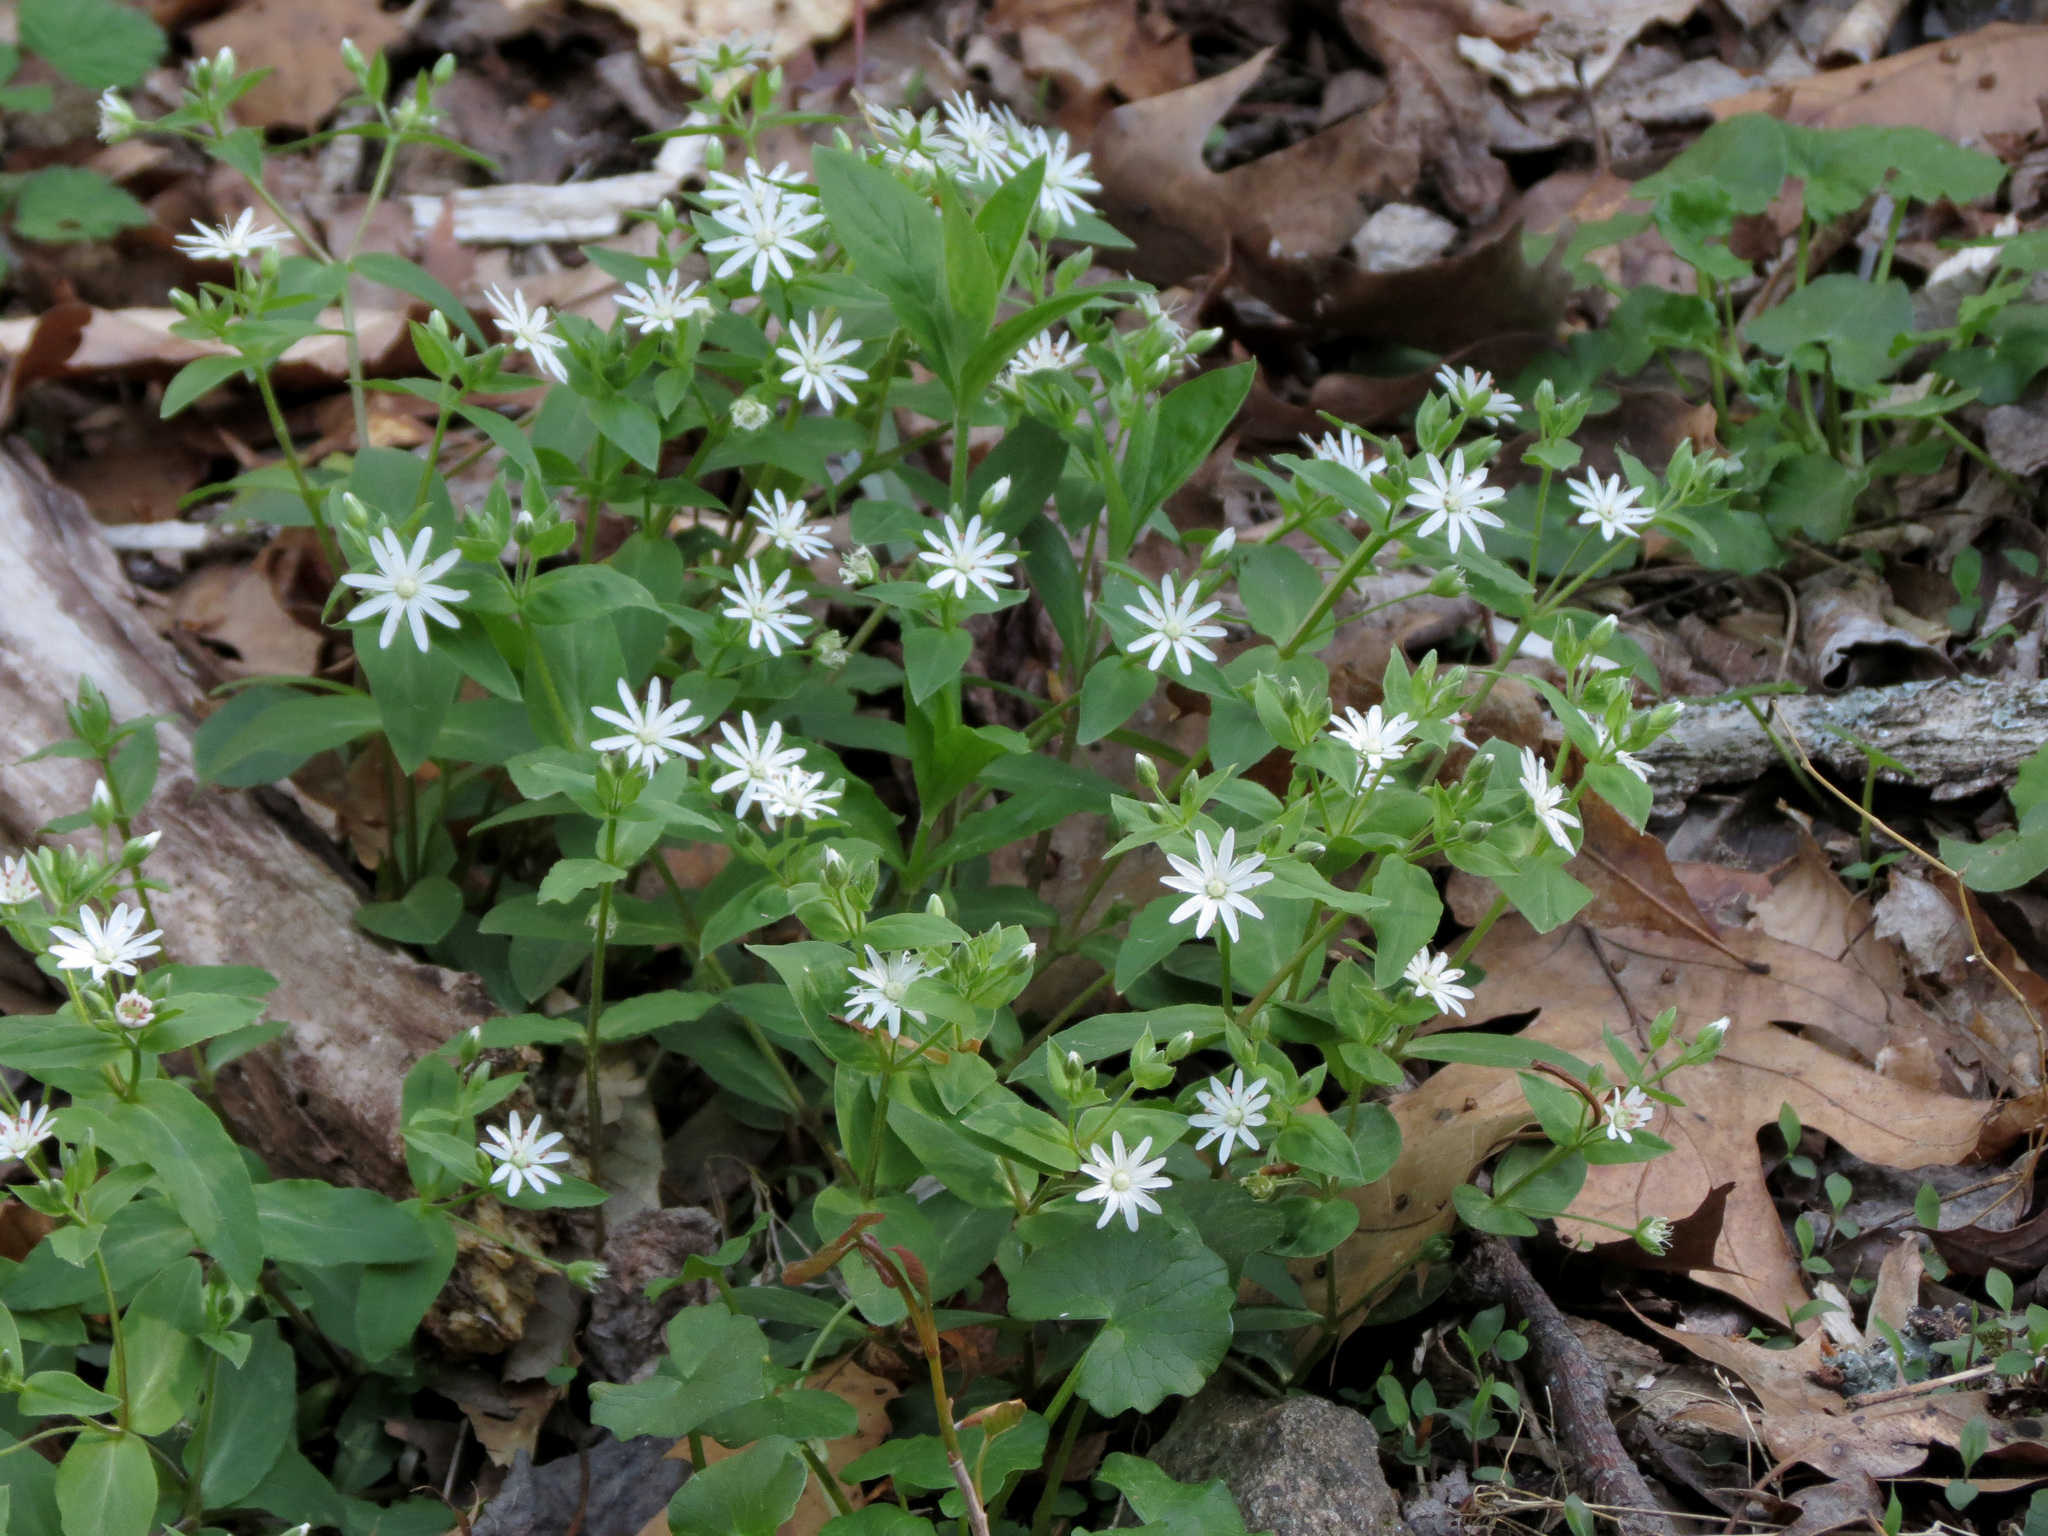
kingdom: Plantae
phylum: Tracheophyta
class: Magnoliopsida
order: Caryophyllales
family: Caryophyllaceae
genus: Stellaria
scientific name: Stellaria pubera
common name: Star chickweed
